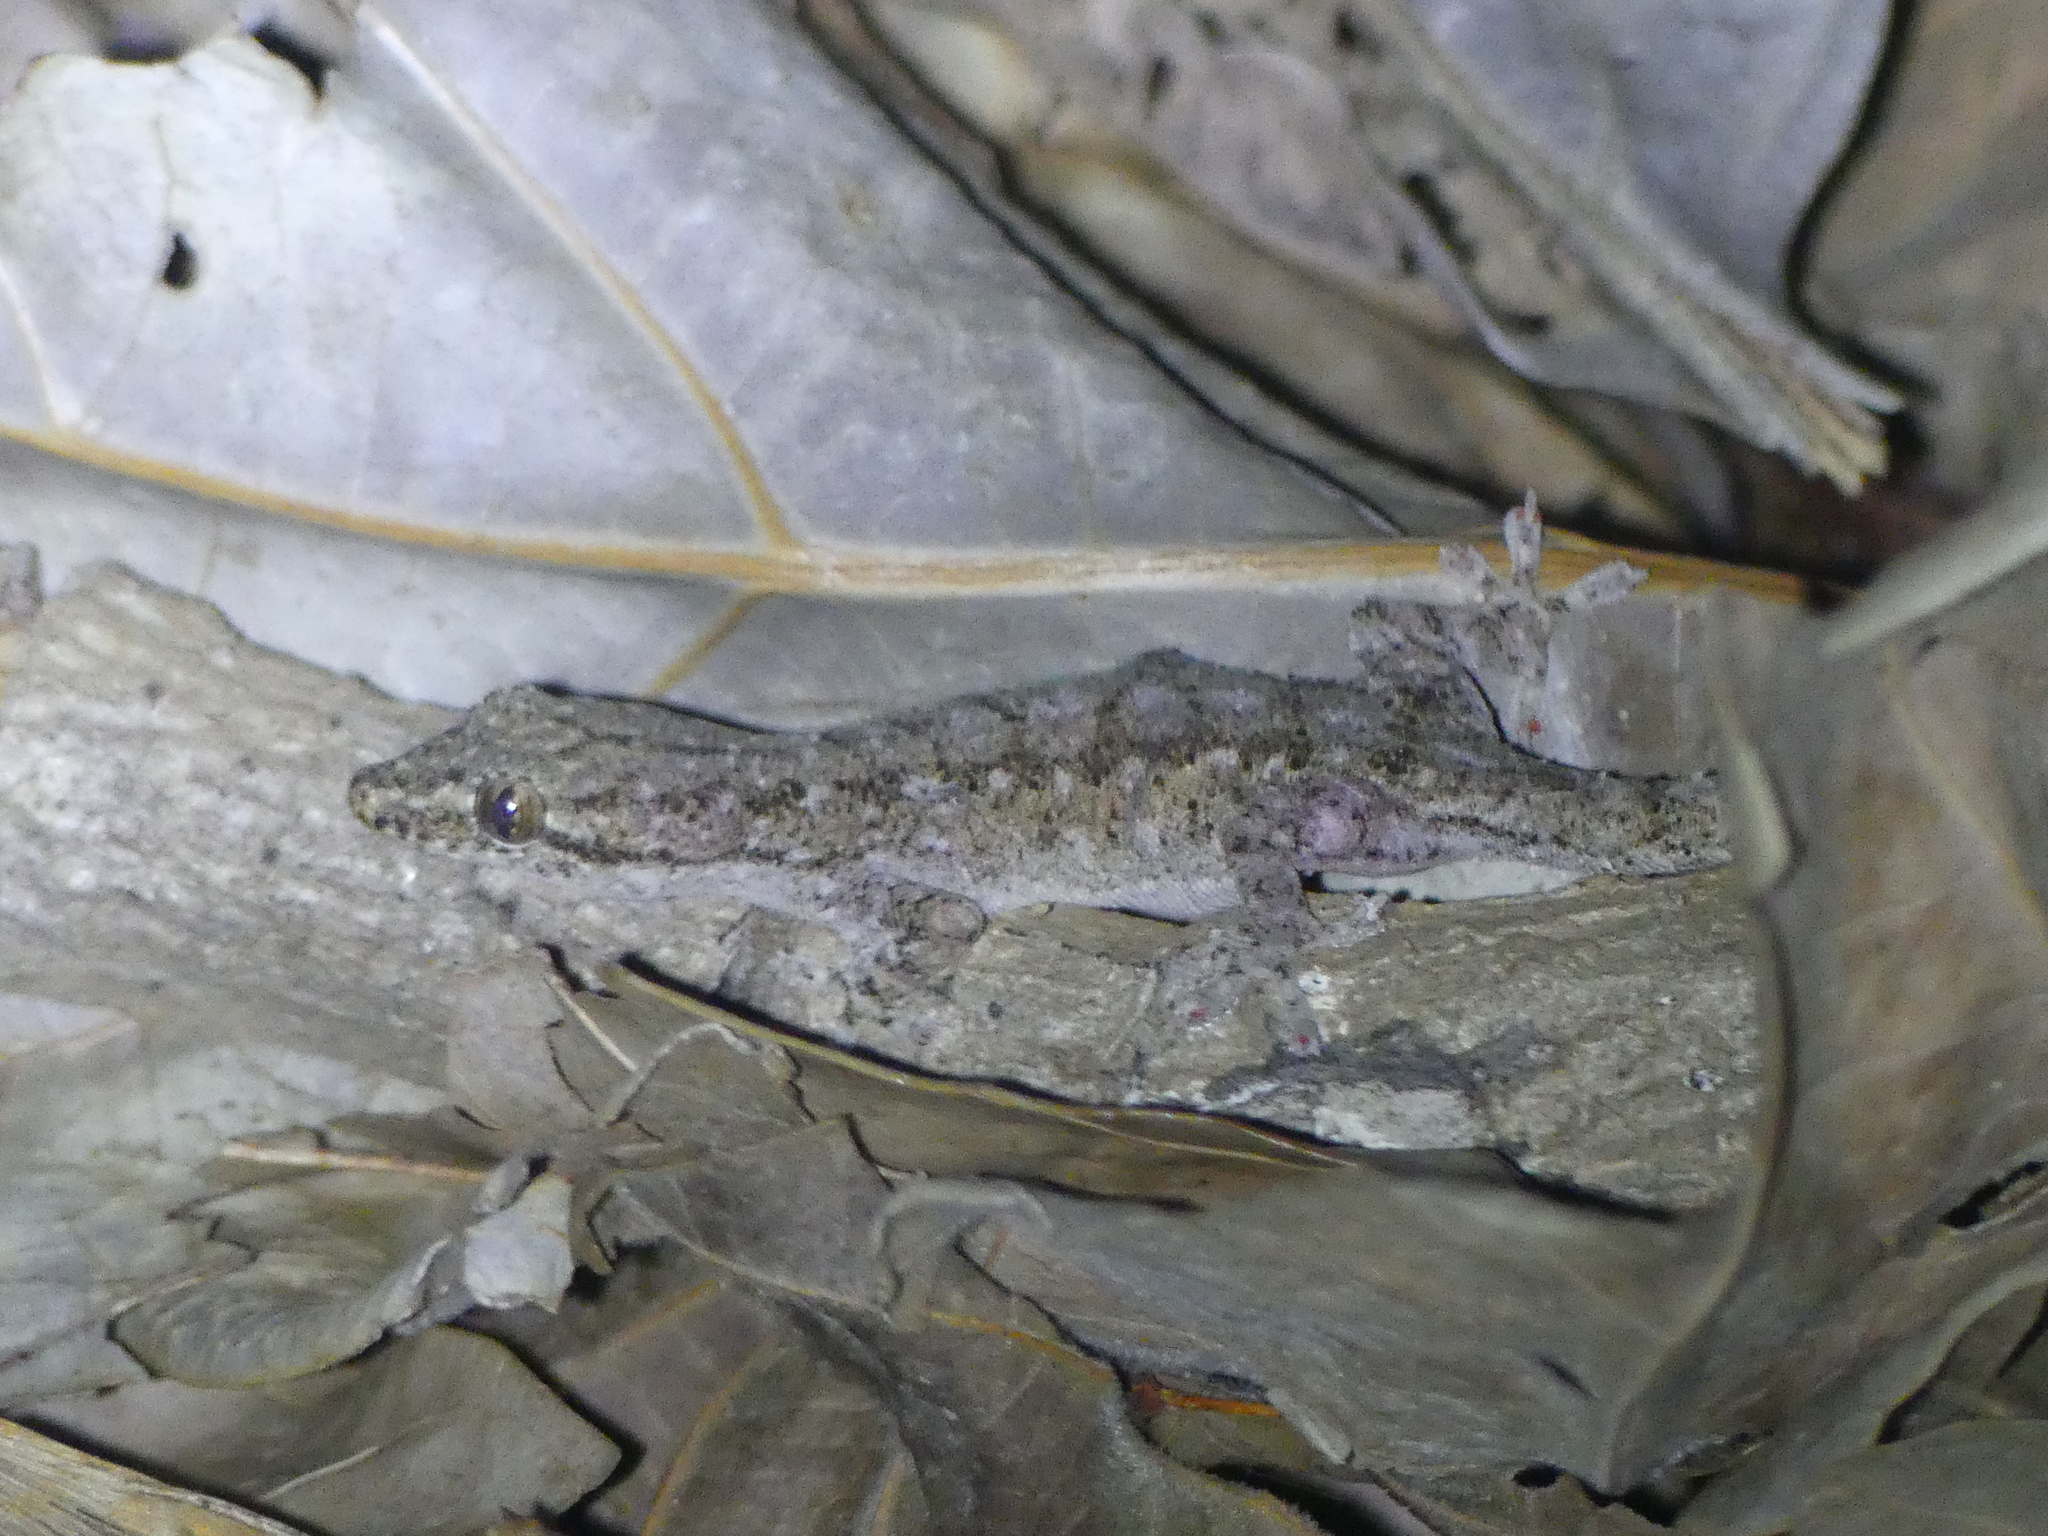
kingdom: Animalia
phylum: Chordata
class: Squamata
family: Gekkonidae
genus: Hemidactylus
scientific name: Hemidactylus frenatus
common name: Common house gecko
